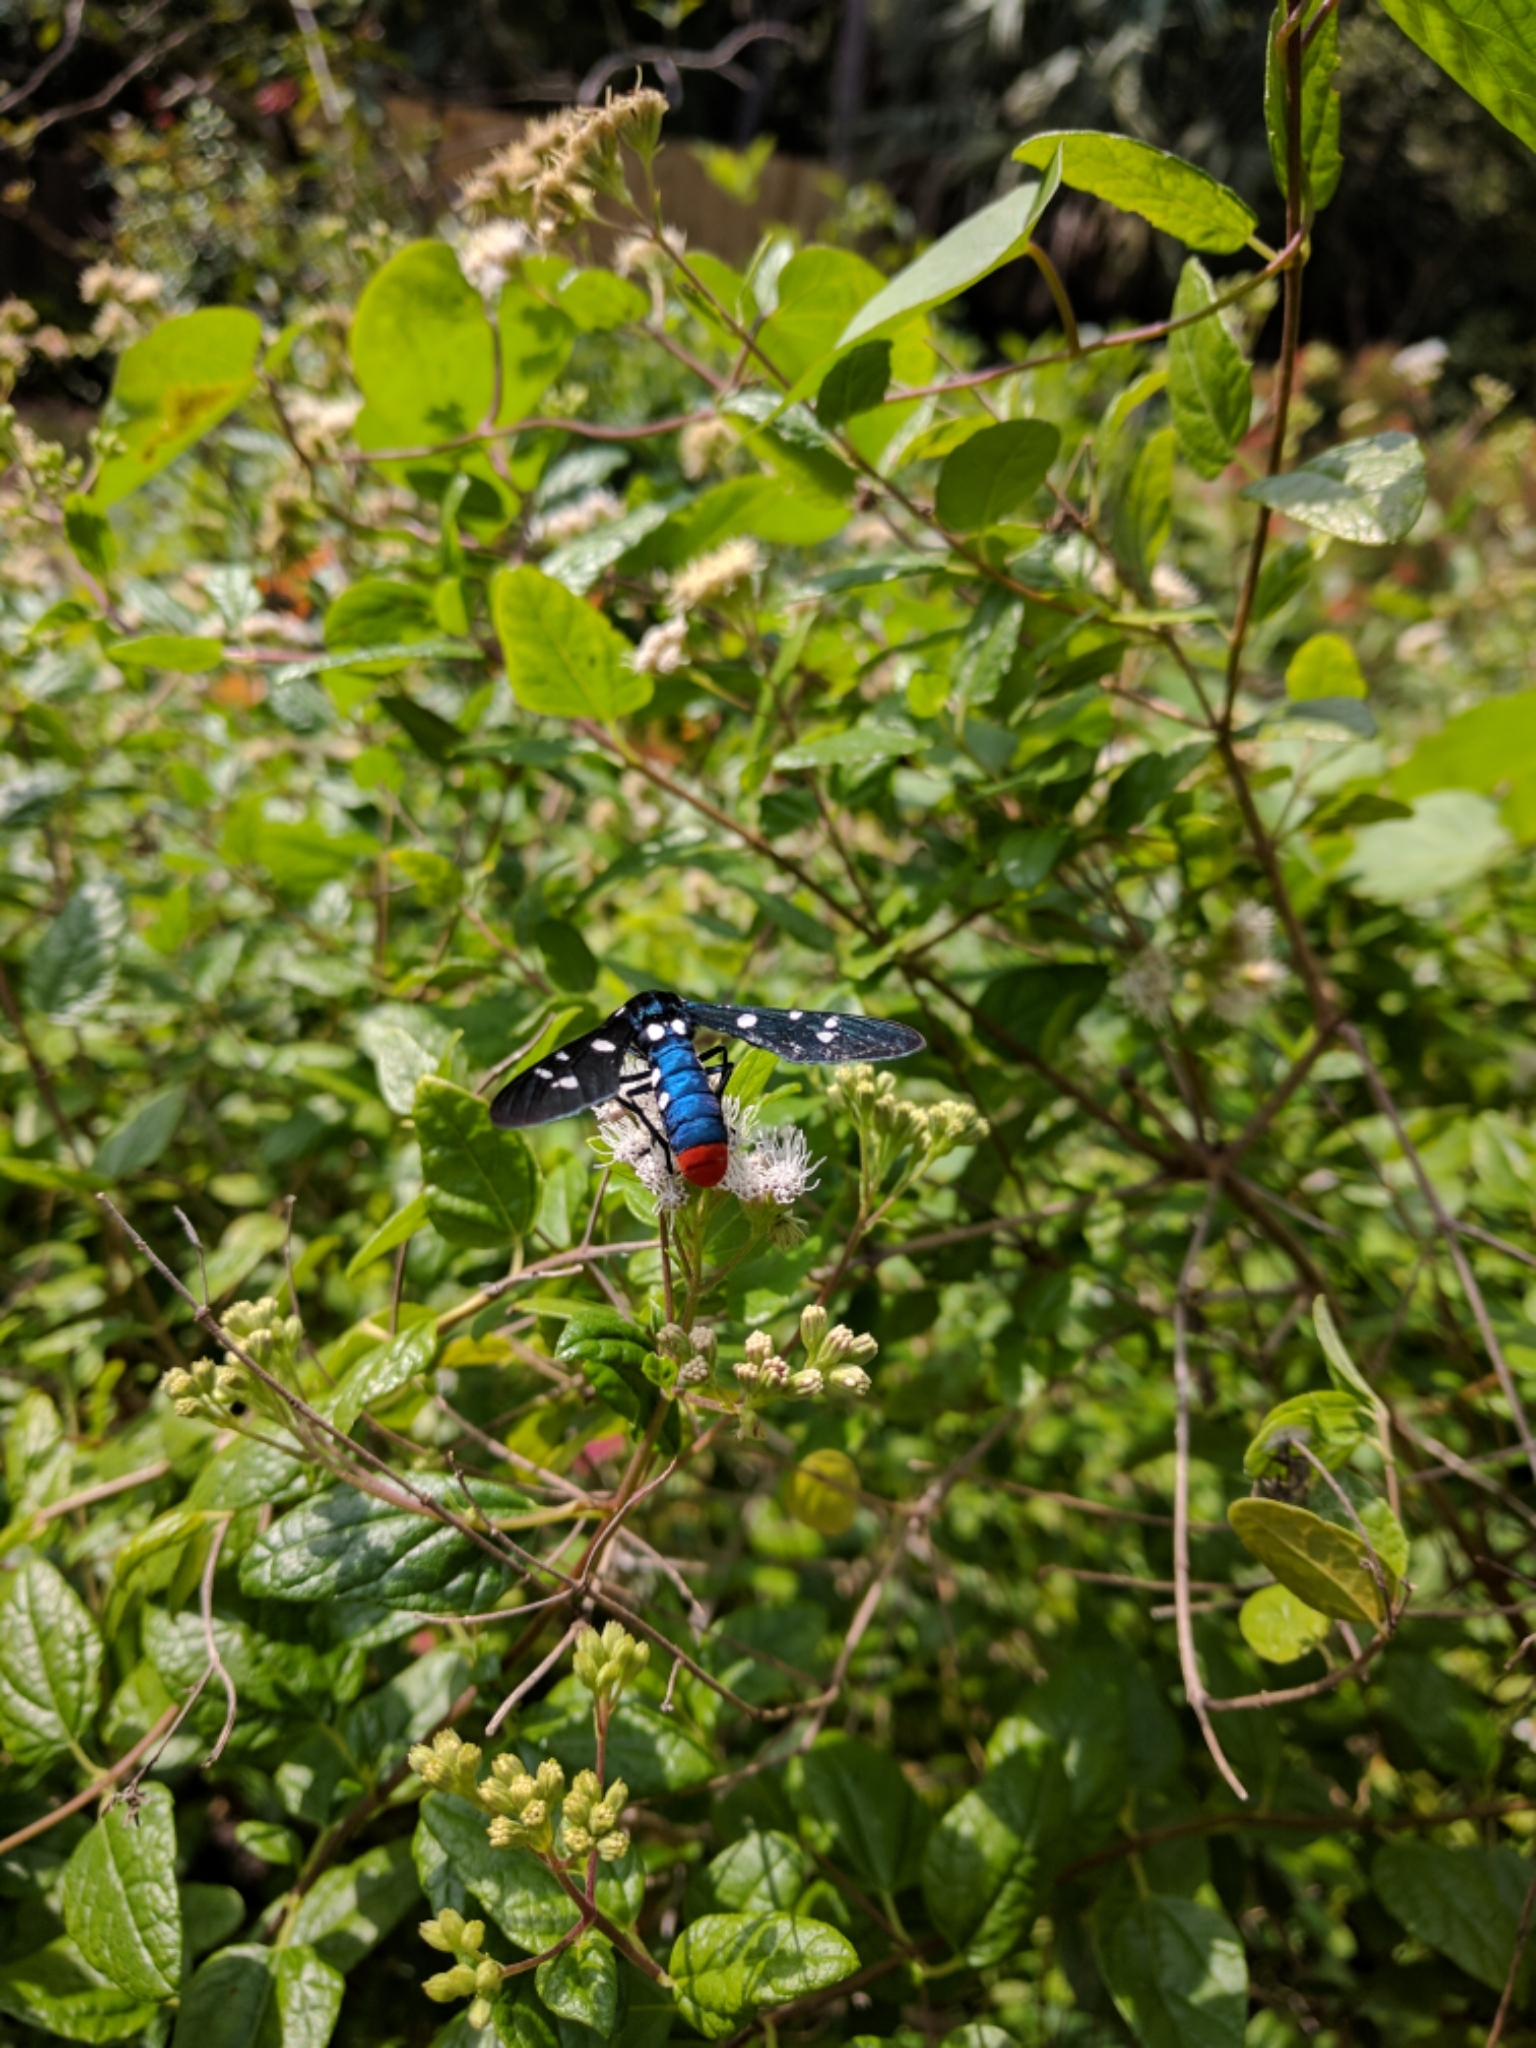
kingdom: Animalia
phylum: Arthropoda
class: Insecta
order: Lepidoptera
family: Erebidae
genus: Syntomeida
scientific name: Syntomeida epilais
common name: Polka-dot wasp moth
